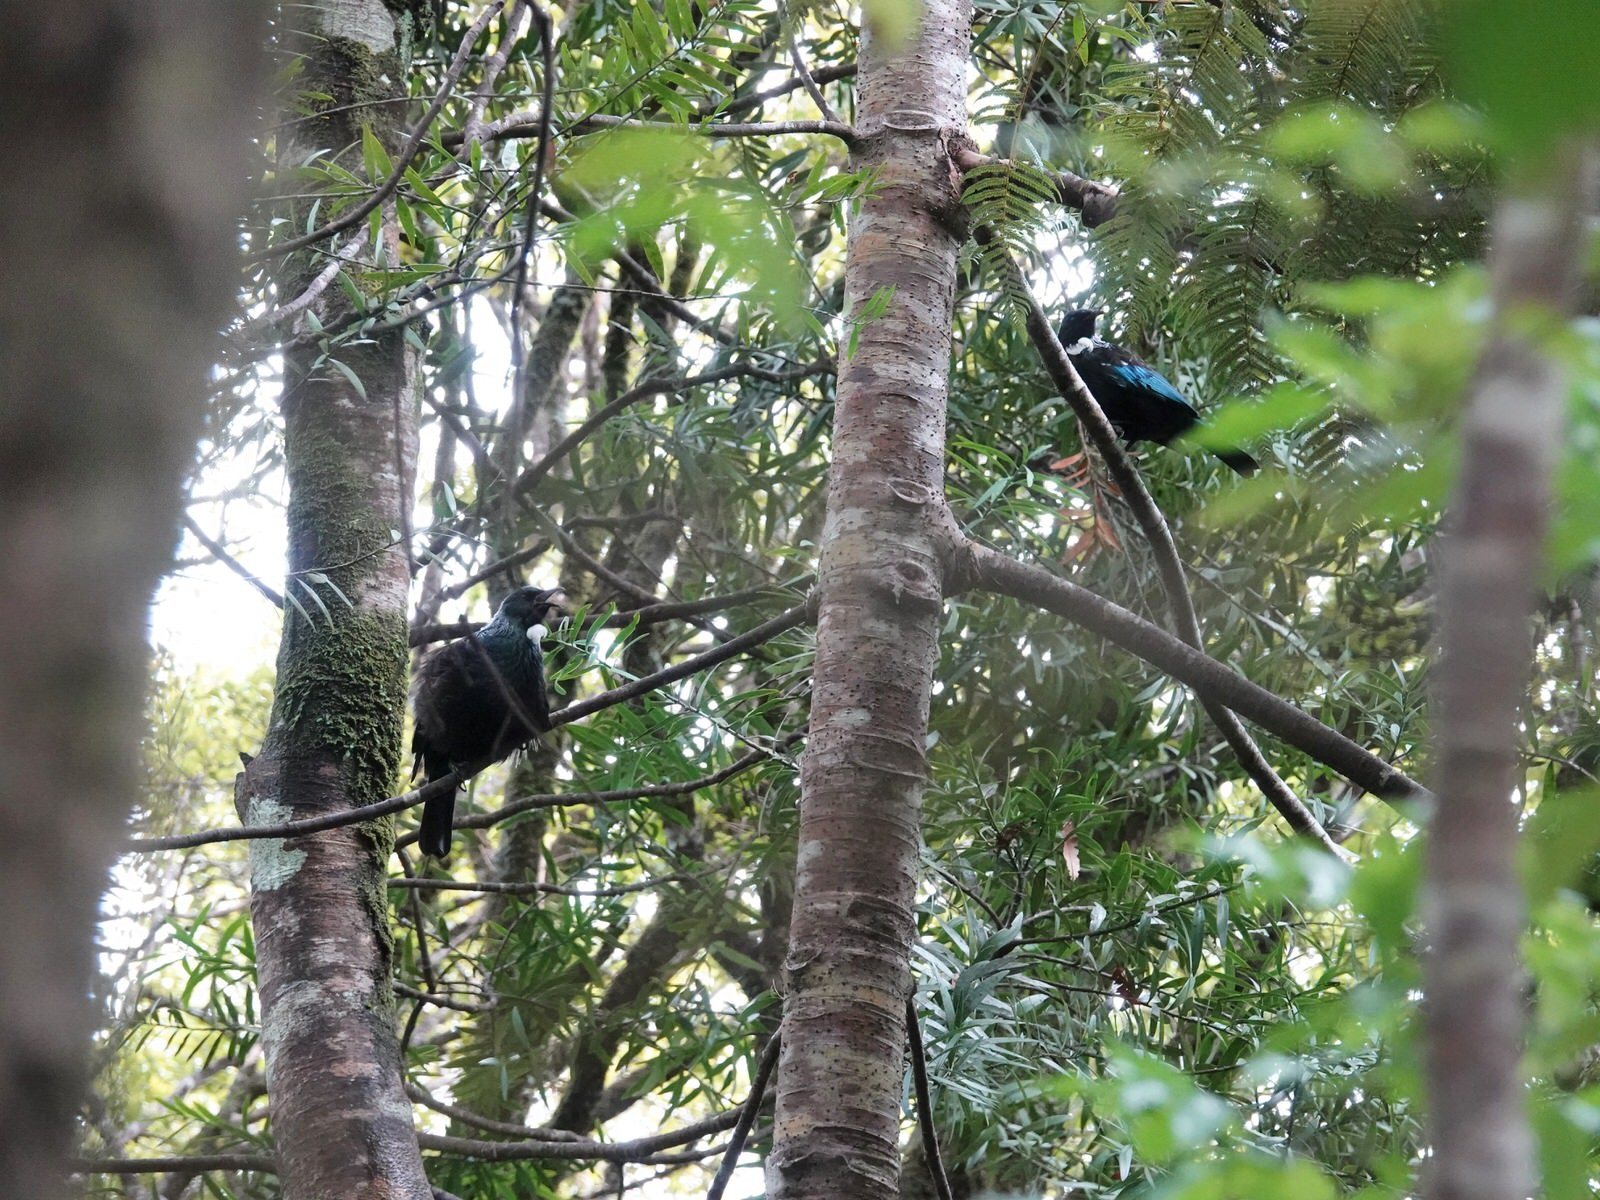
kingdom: Animalia
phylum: Chordata
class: Aves
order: Passeriformes
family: Meliphagidae
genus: Prosthemadera
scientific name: Prosthemadera novaeseelandiae
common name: Tui
